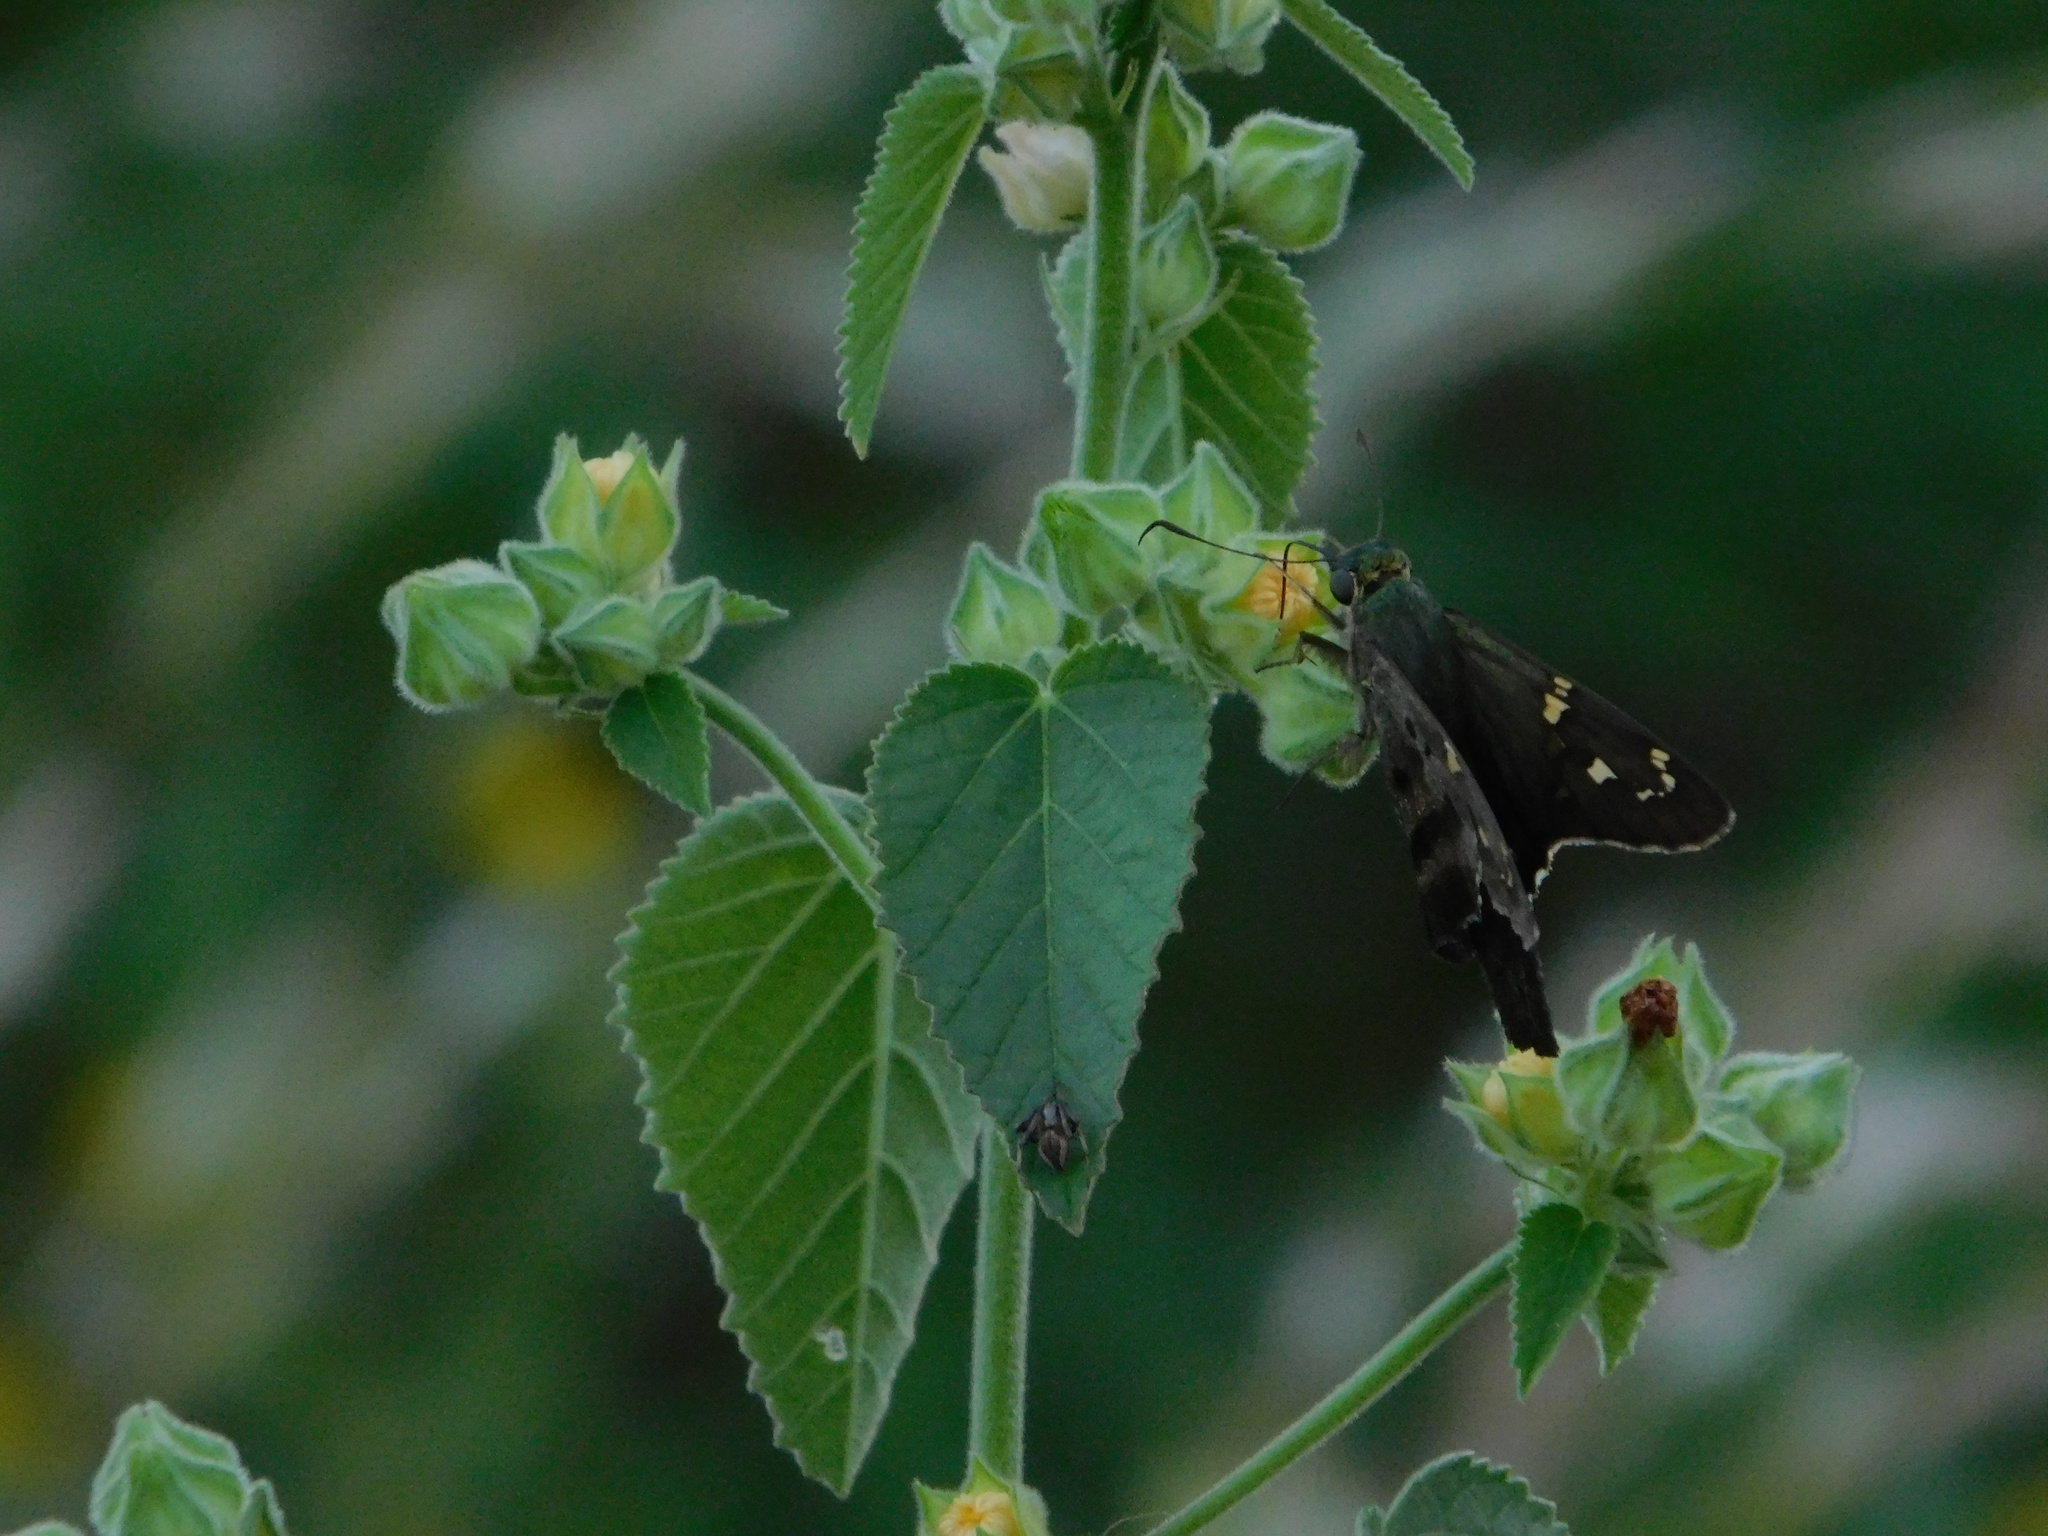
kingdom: Animalia
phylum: Arthropoda
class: Insecta
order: Lepidoptera
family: Hesperiidae
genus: Urbanus
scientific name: Urbanus proteus
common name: Long-tailed skipper
